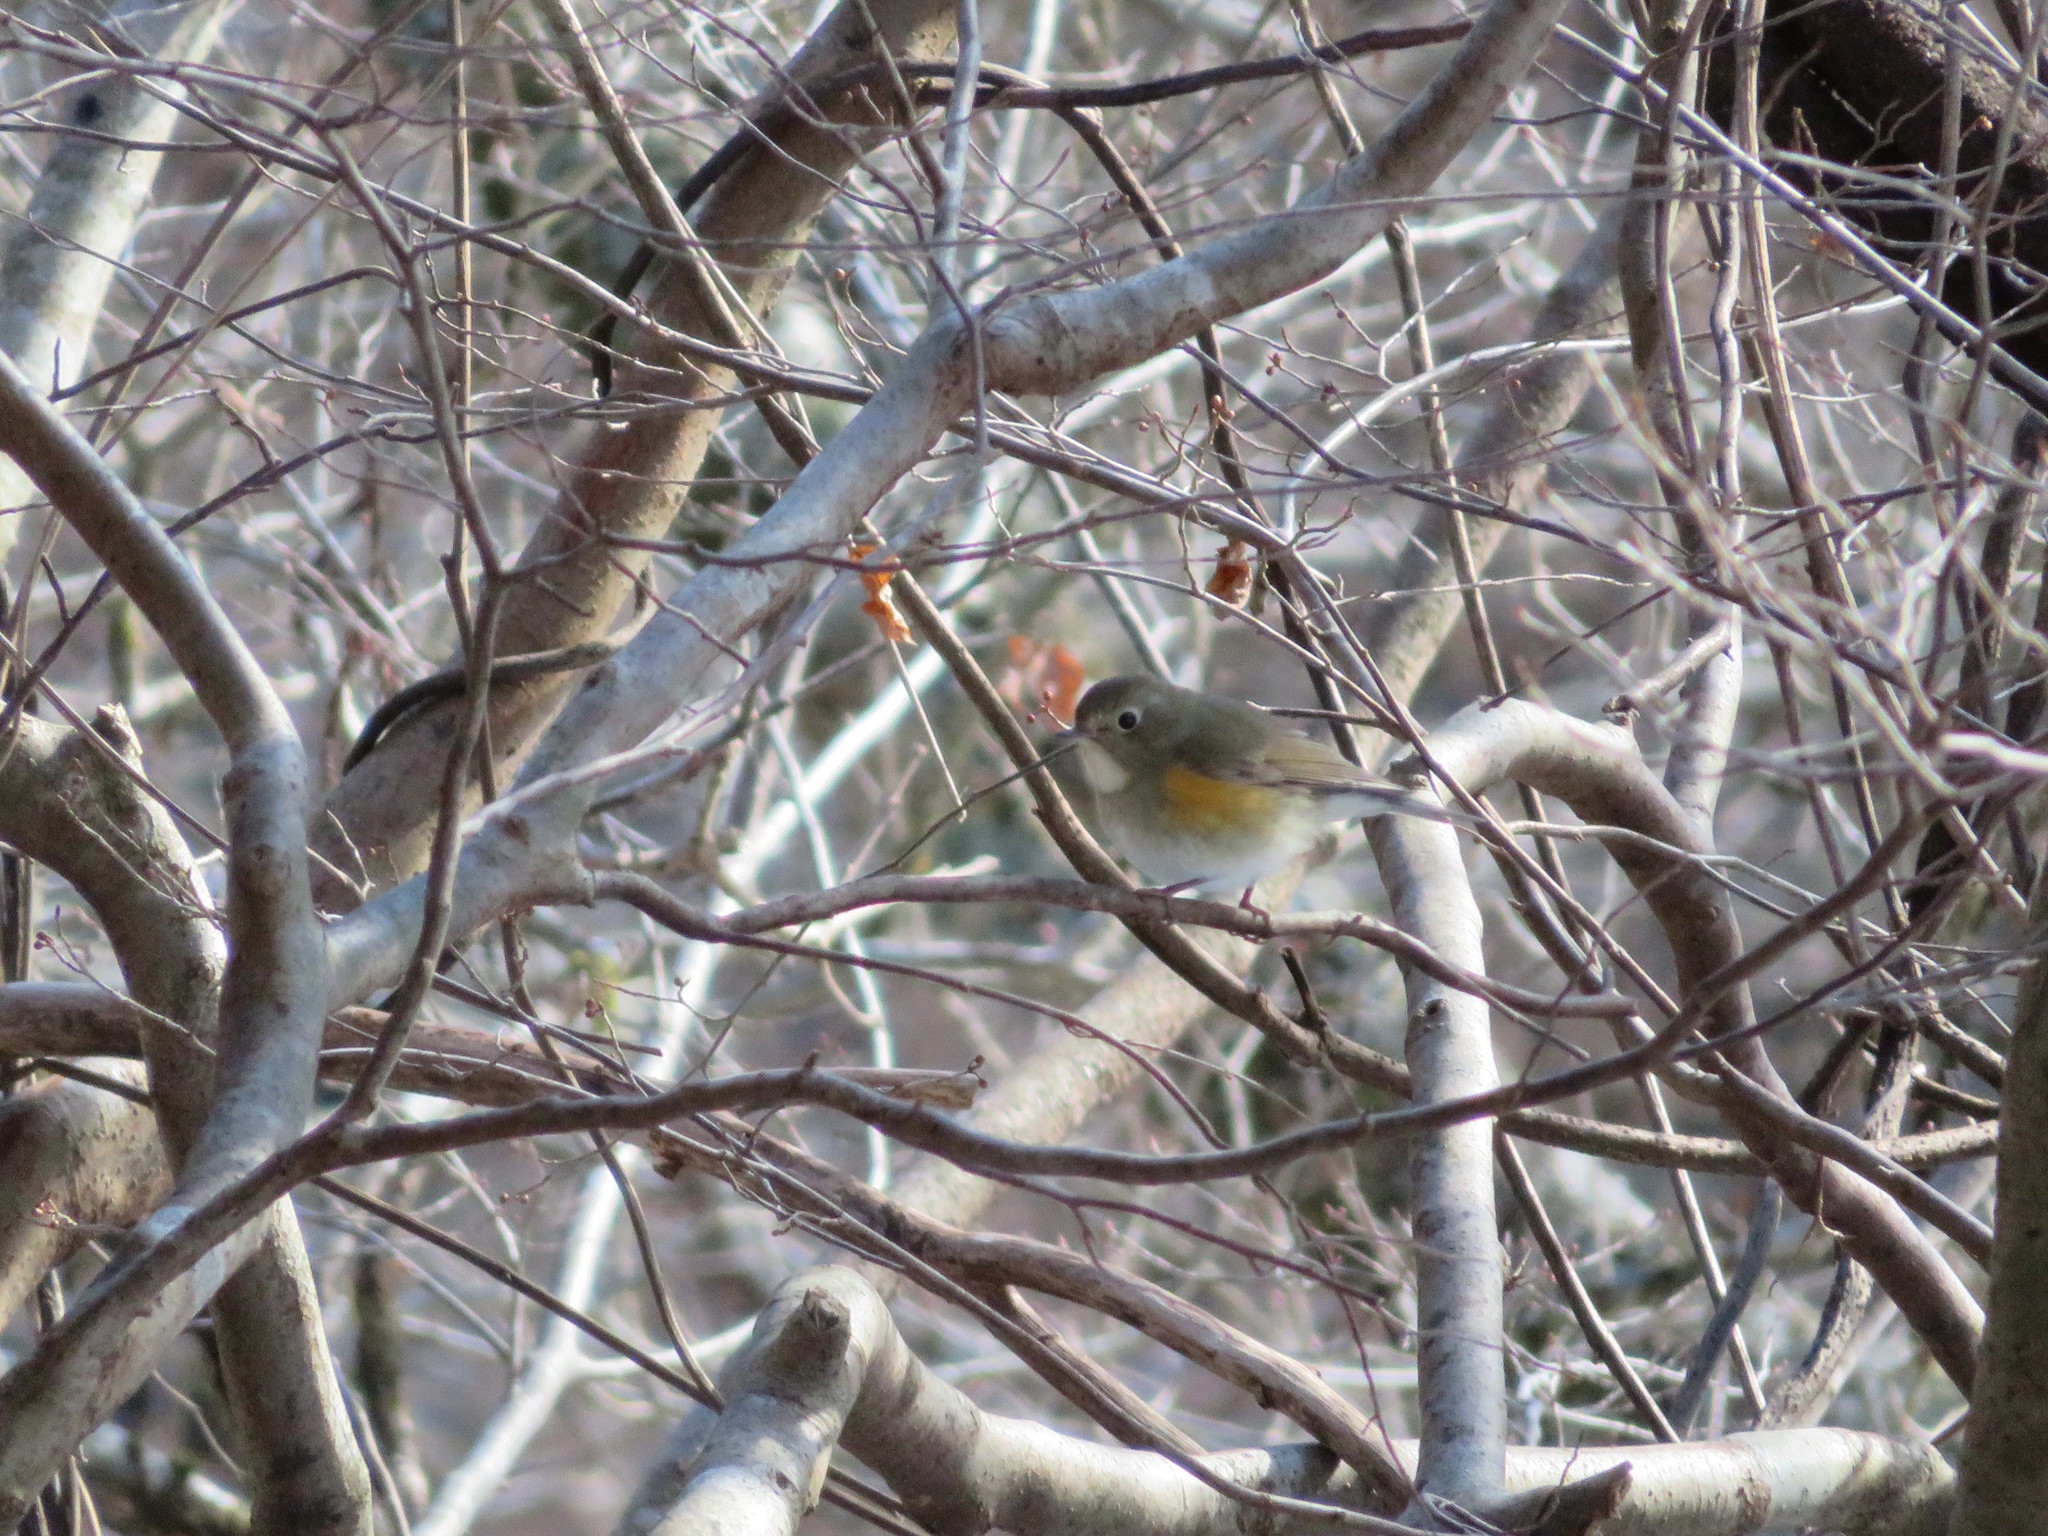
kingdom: Animalia
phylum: Chordata
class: Aves
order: Passeriformes
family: Muscicapidae
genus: Tarsiger
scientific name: Tarsiger cyanurus
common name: Red-flanked bluetail
